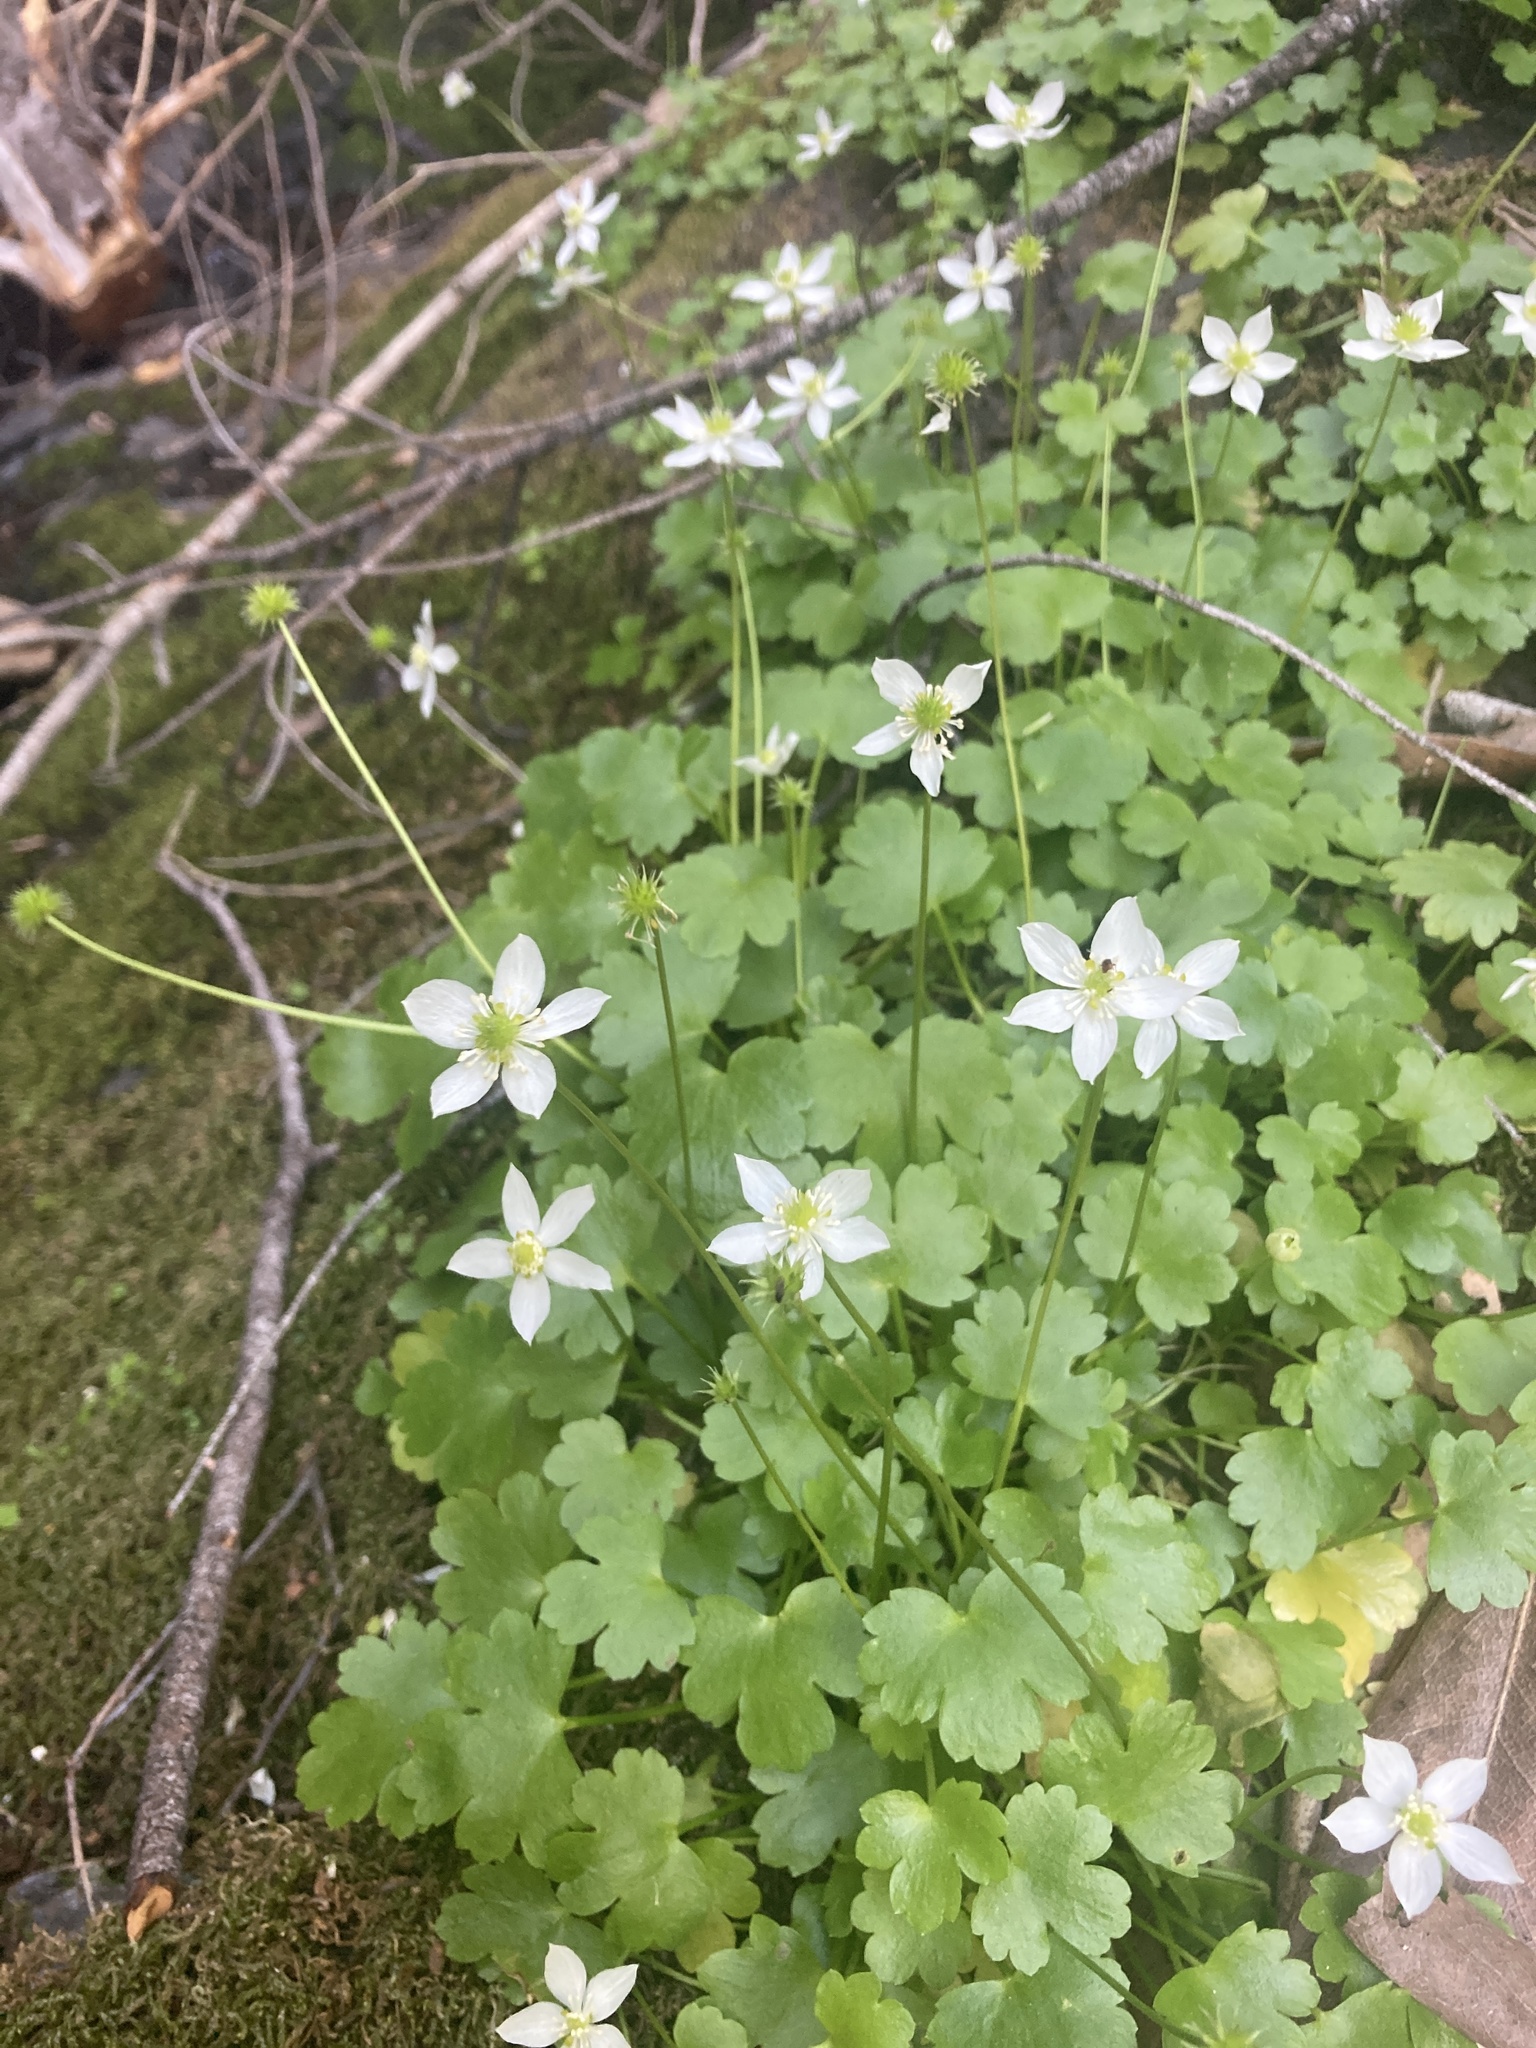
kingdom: Plantae
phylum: Tracheophyta
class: Magnoliopsida
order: Ranunculales
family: Ranunculaceae
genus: Kumlienia
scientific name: Kumlienia hystricula
